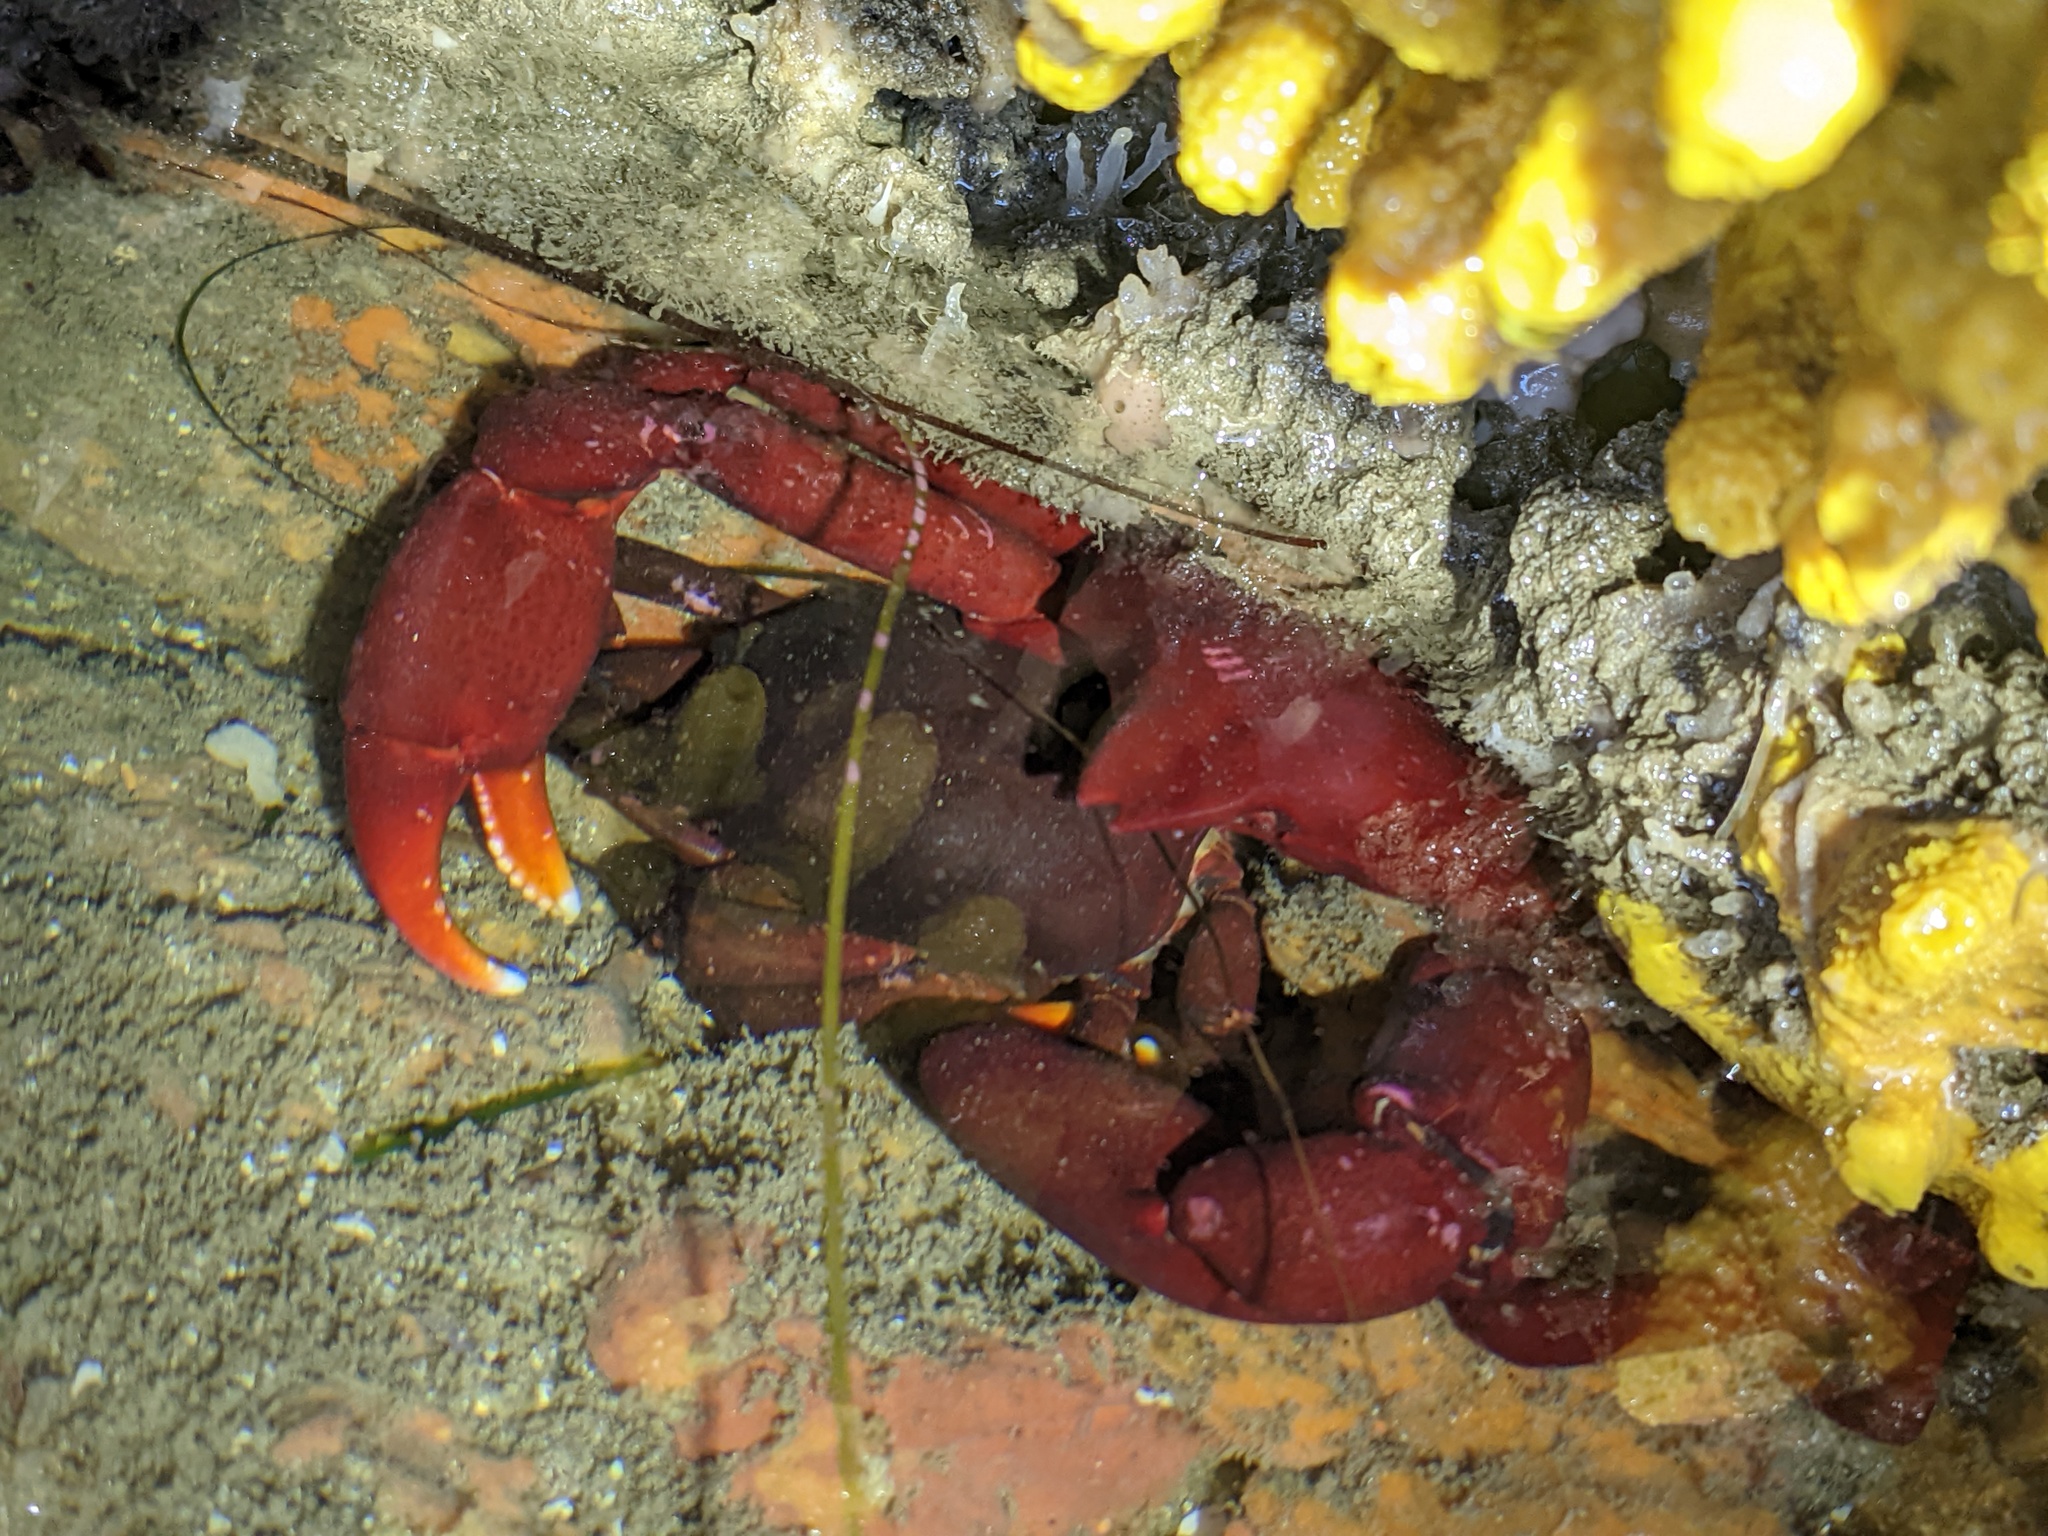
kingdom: Animalia
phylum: Arthropoda
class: Malacostraca
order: Decapoda
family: Epialtidae
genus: Taliepus
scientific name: Taliepus nuttallii
